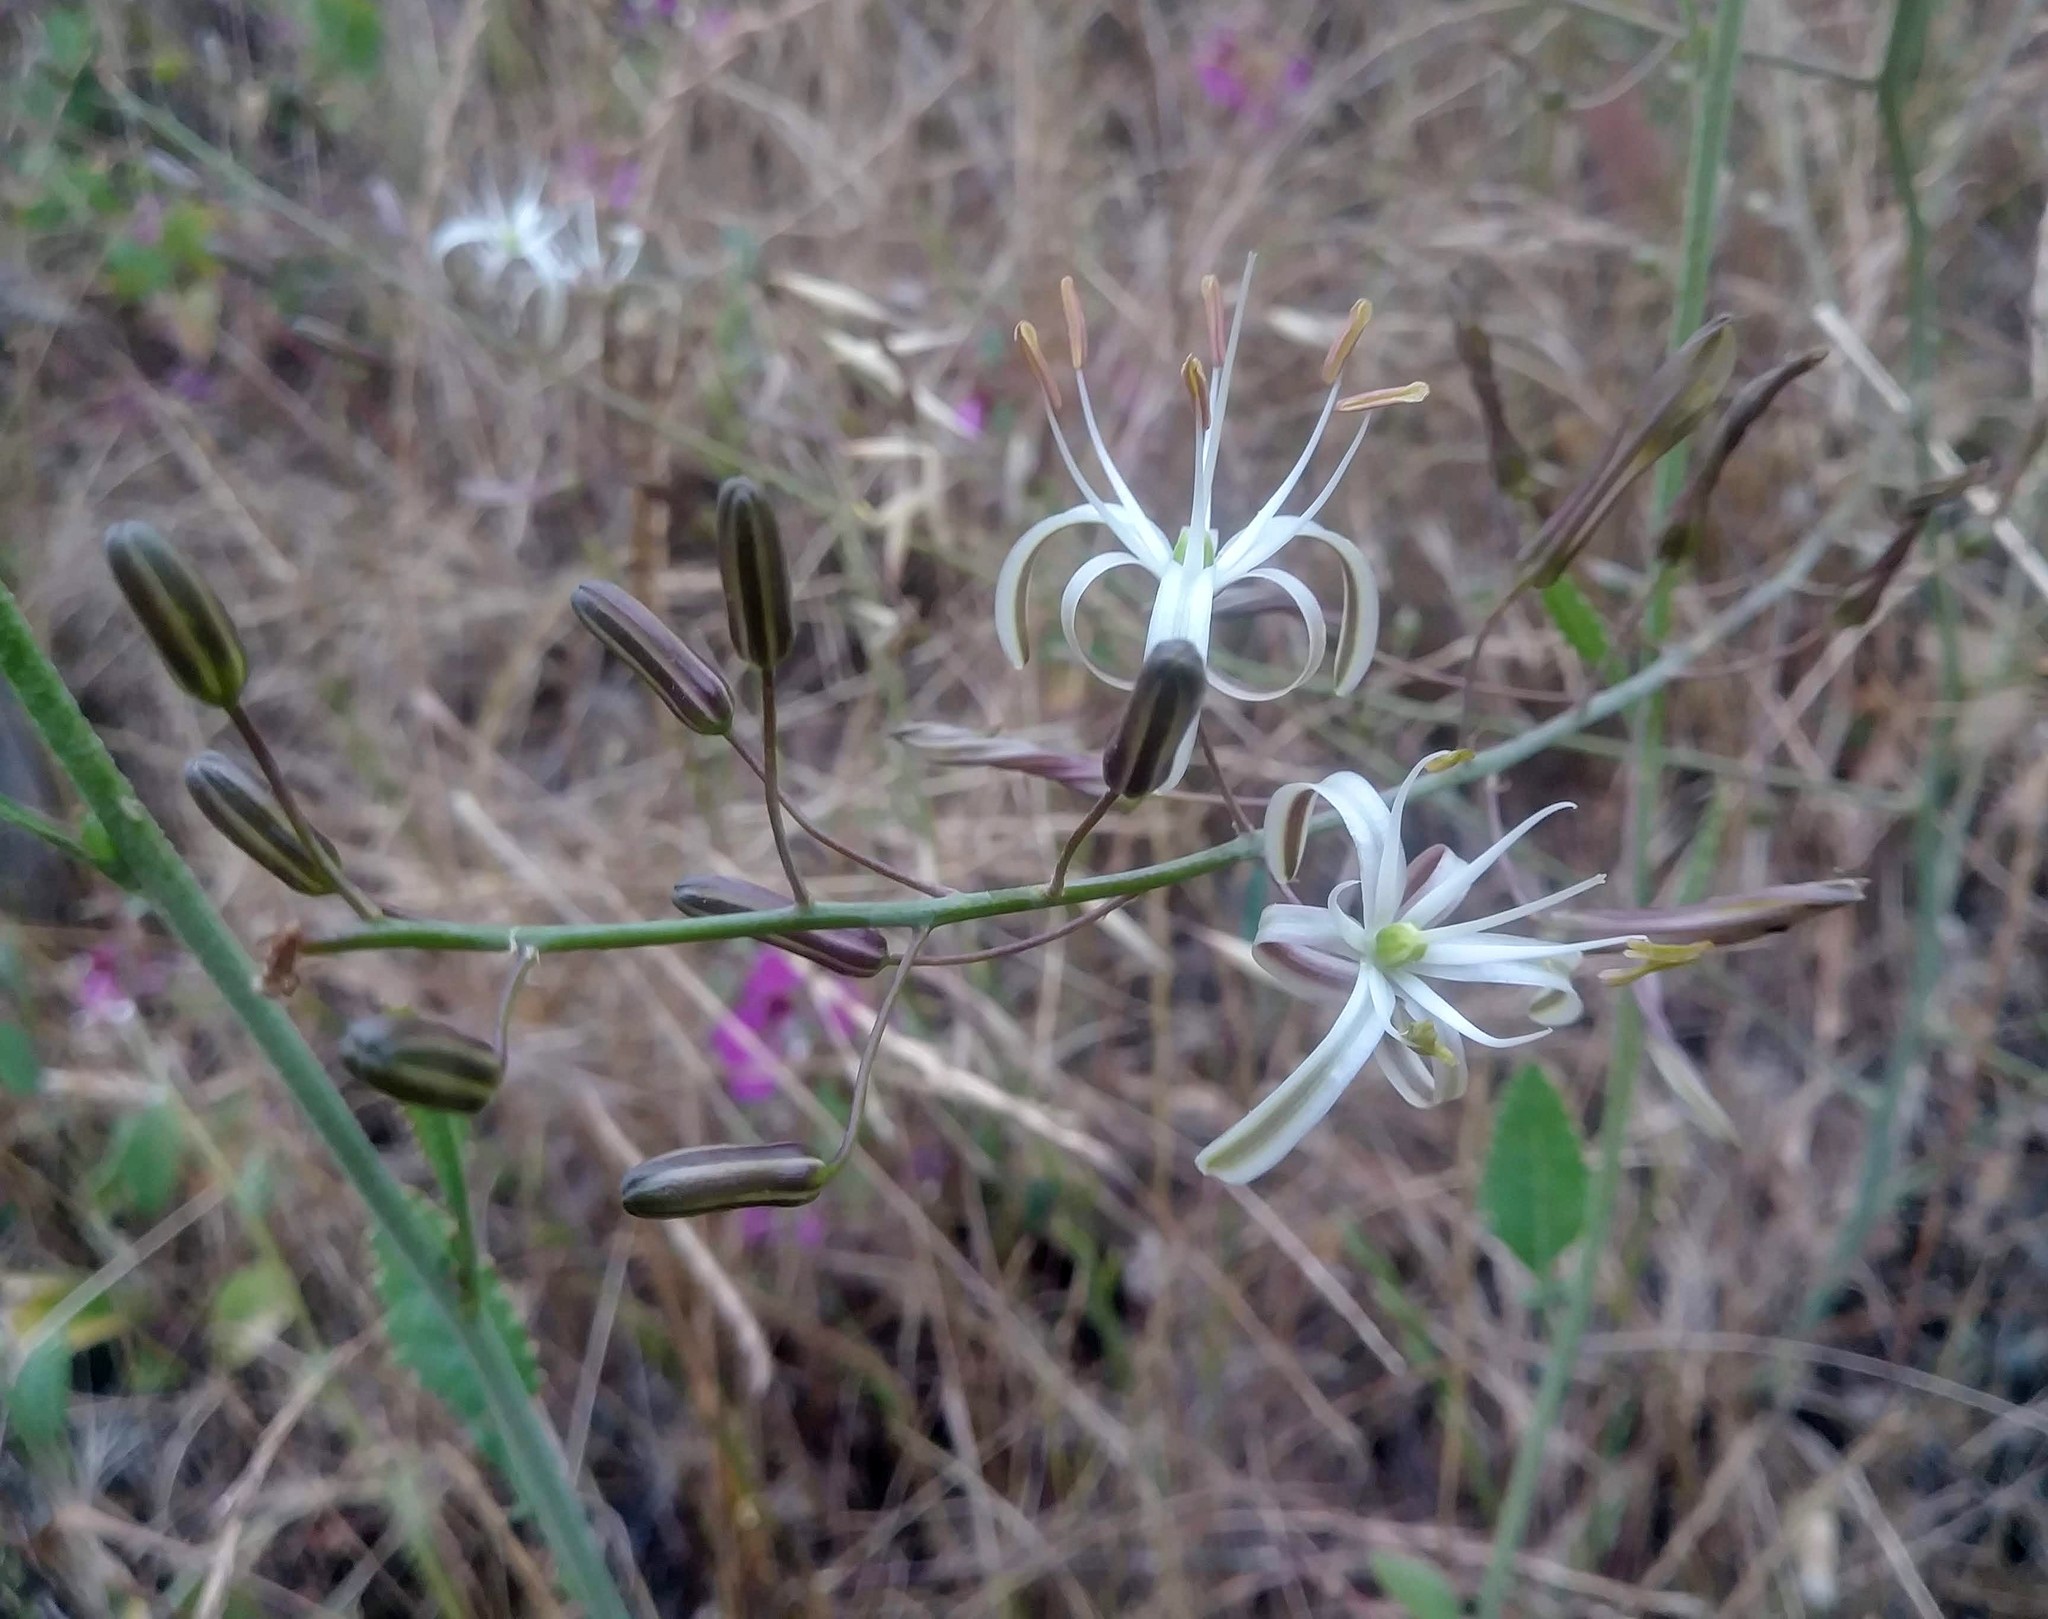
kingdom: Plantae
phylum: Tracheophyta
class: Liliopsida
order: Asparagales
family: Asparagaceae
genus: Chlorogalum
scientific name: Chlorogalum pomeridianum
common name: Amole
